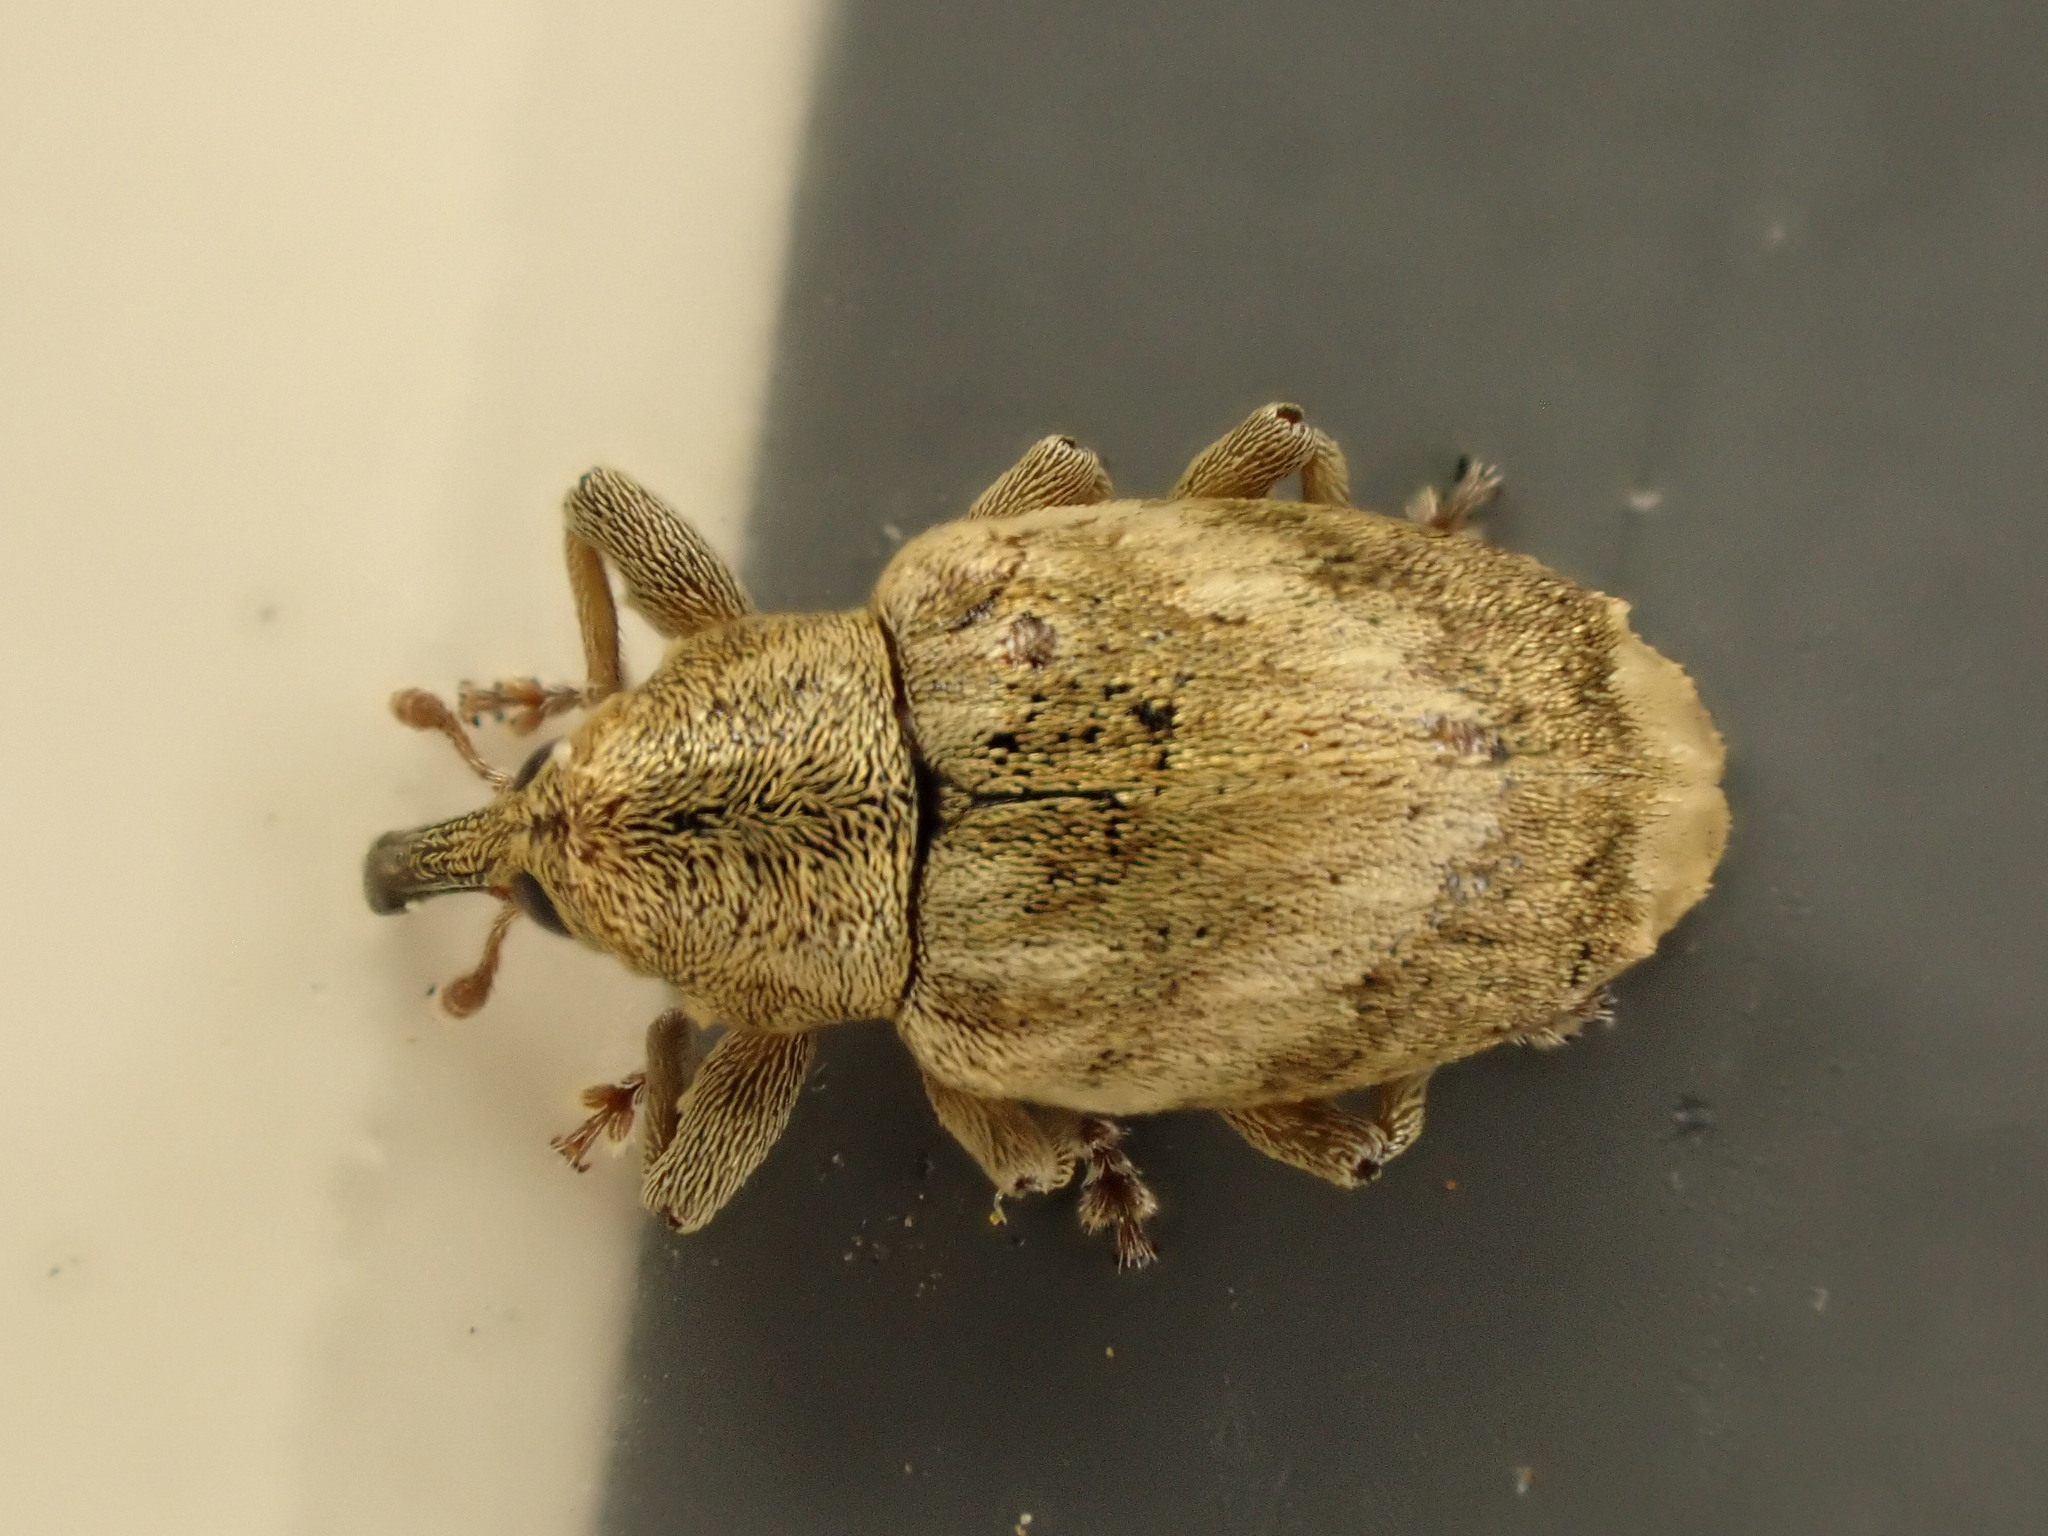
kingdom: Animalia
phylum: Arthropoda
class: Insecta
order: Coleoptera
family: Curculionidae
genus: Aneuma
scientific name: Aneuma compta
